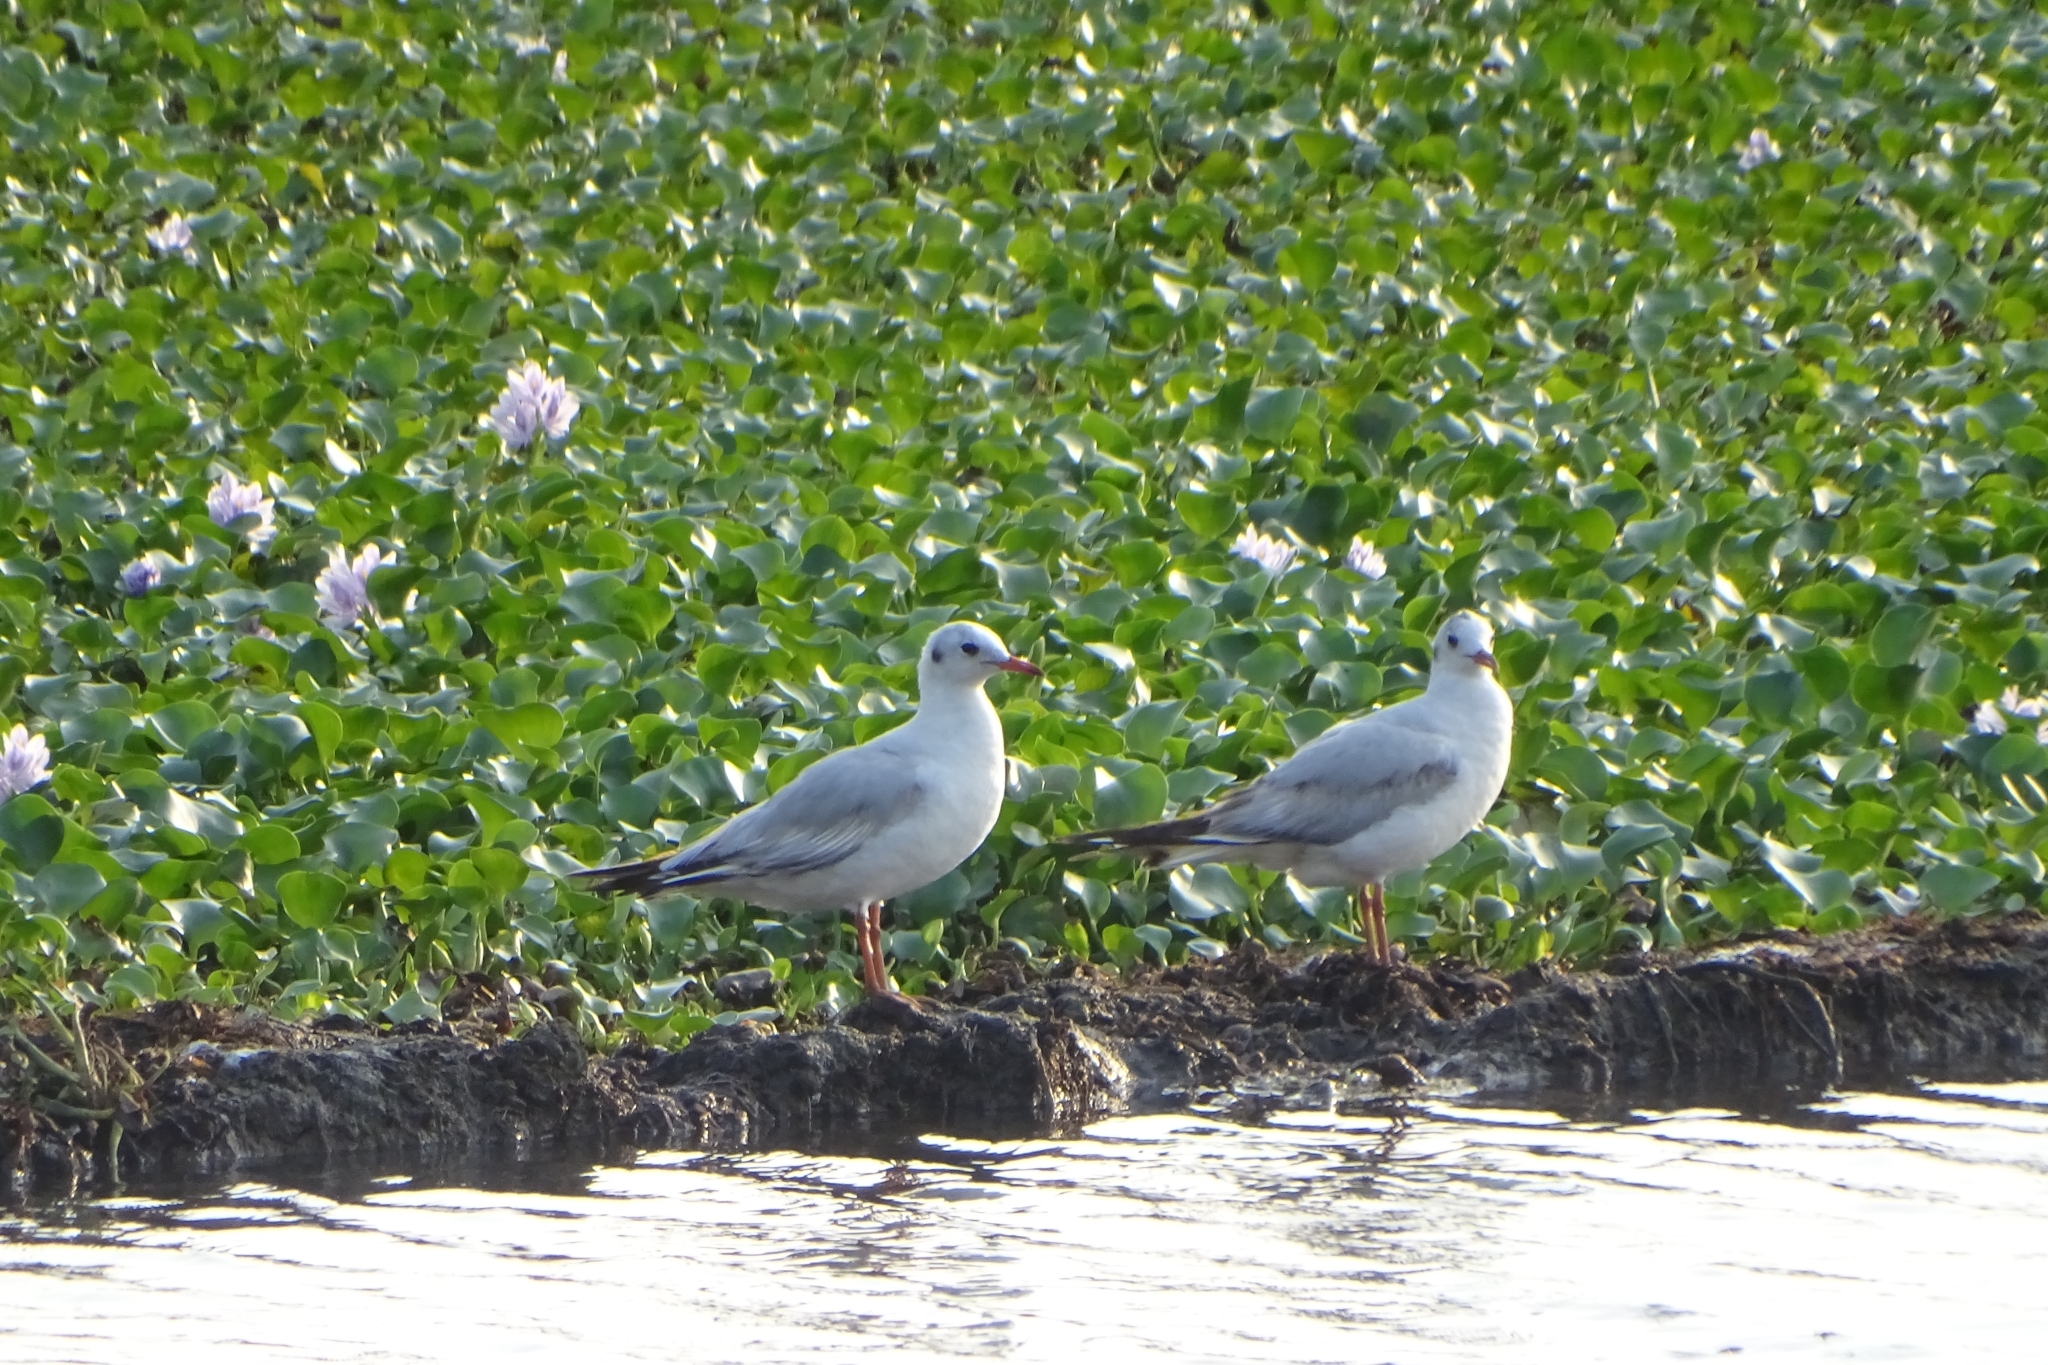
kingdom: Animalia
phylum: Chordata
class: Aves
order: Charadriiformes
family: Laridae
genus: Chroicocephalus
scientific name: Chroicocephalus brunnicephalus
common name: Brown-headed gull
